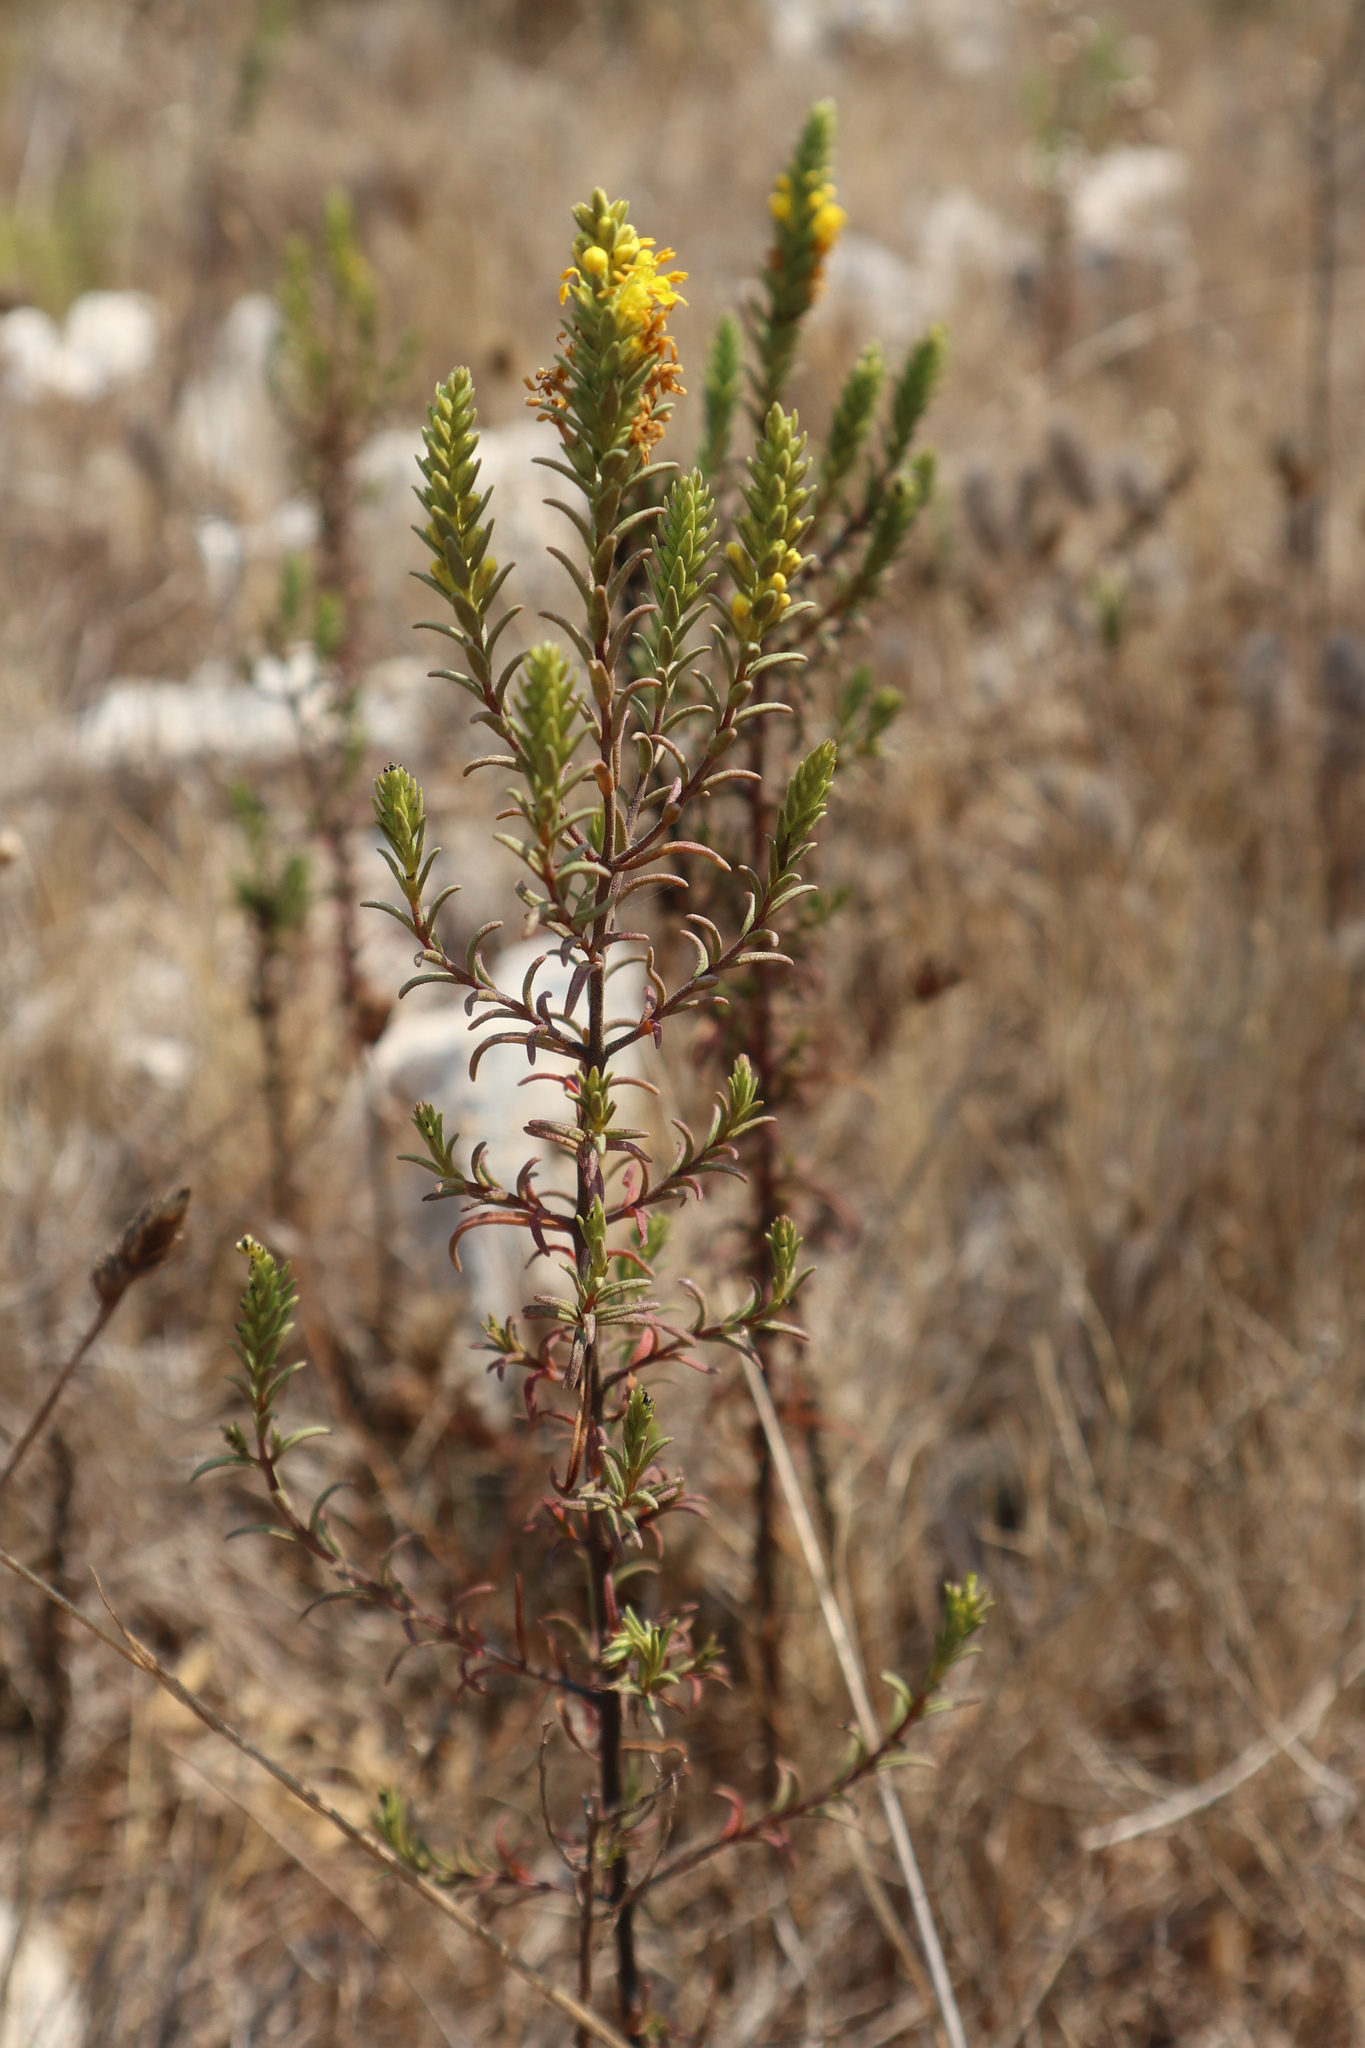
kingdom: Plantae
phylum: Tracheophyta
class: Magnoliopsida
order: Lamiales
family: Orobanchaceae
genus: Odontites
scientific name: Odontites luteus
